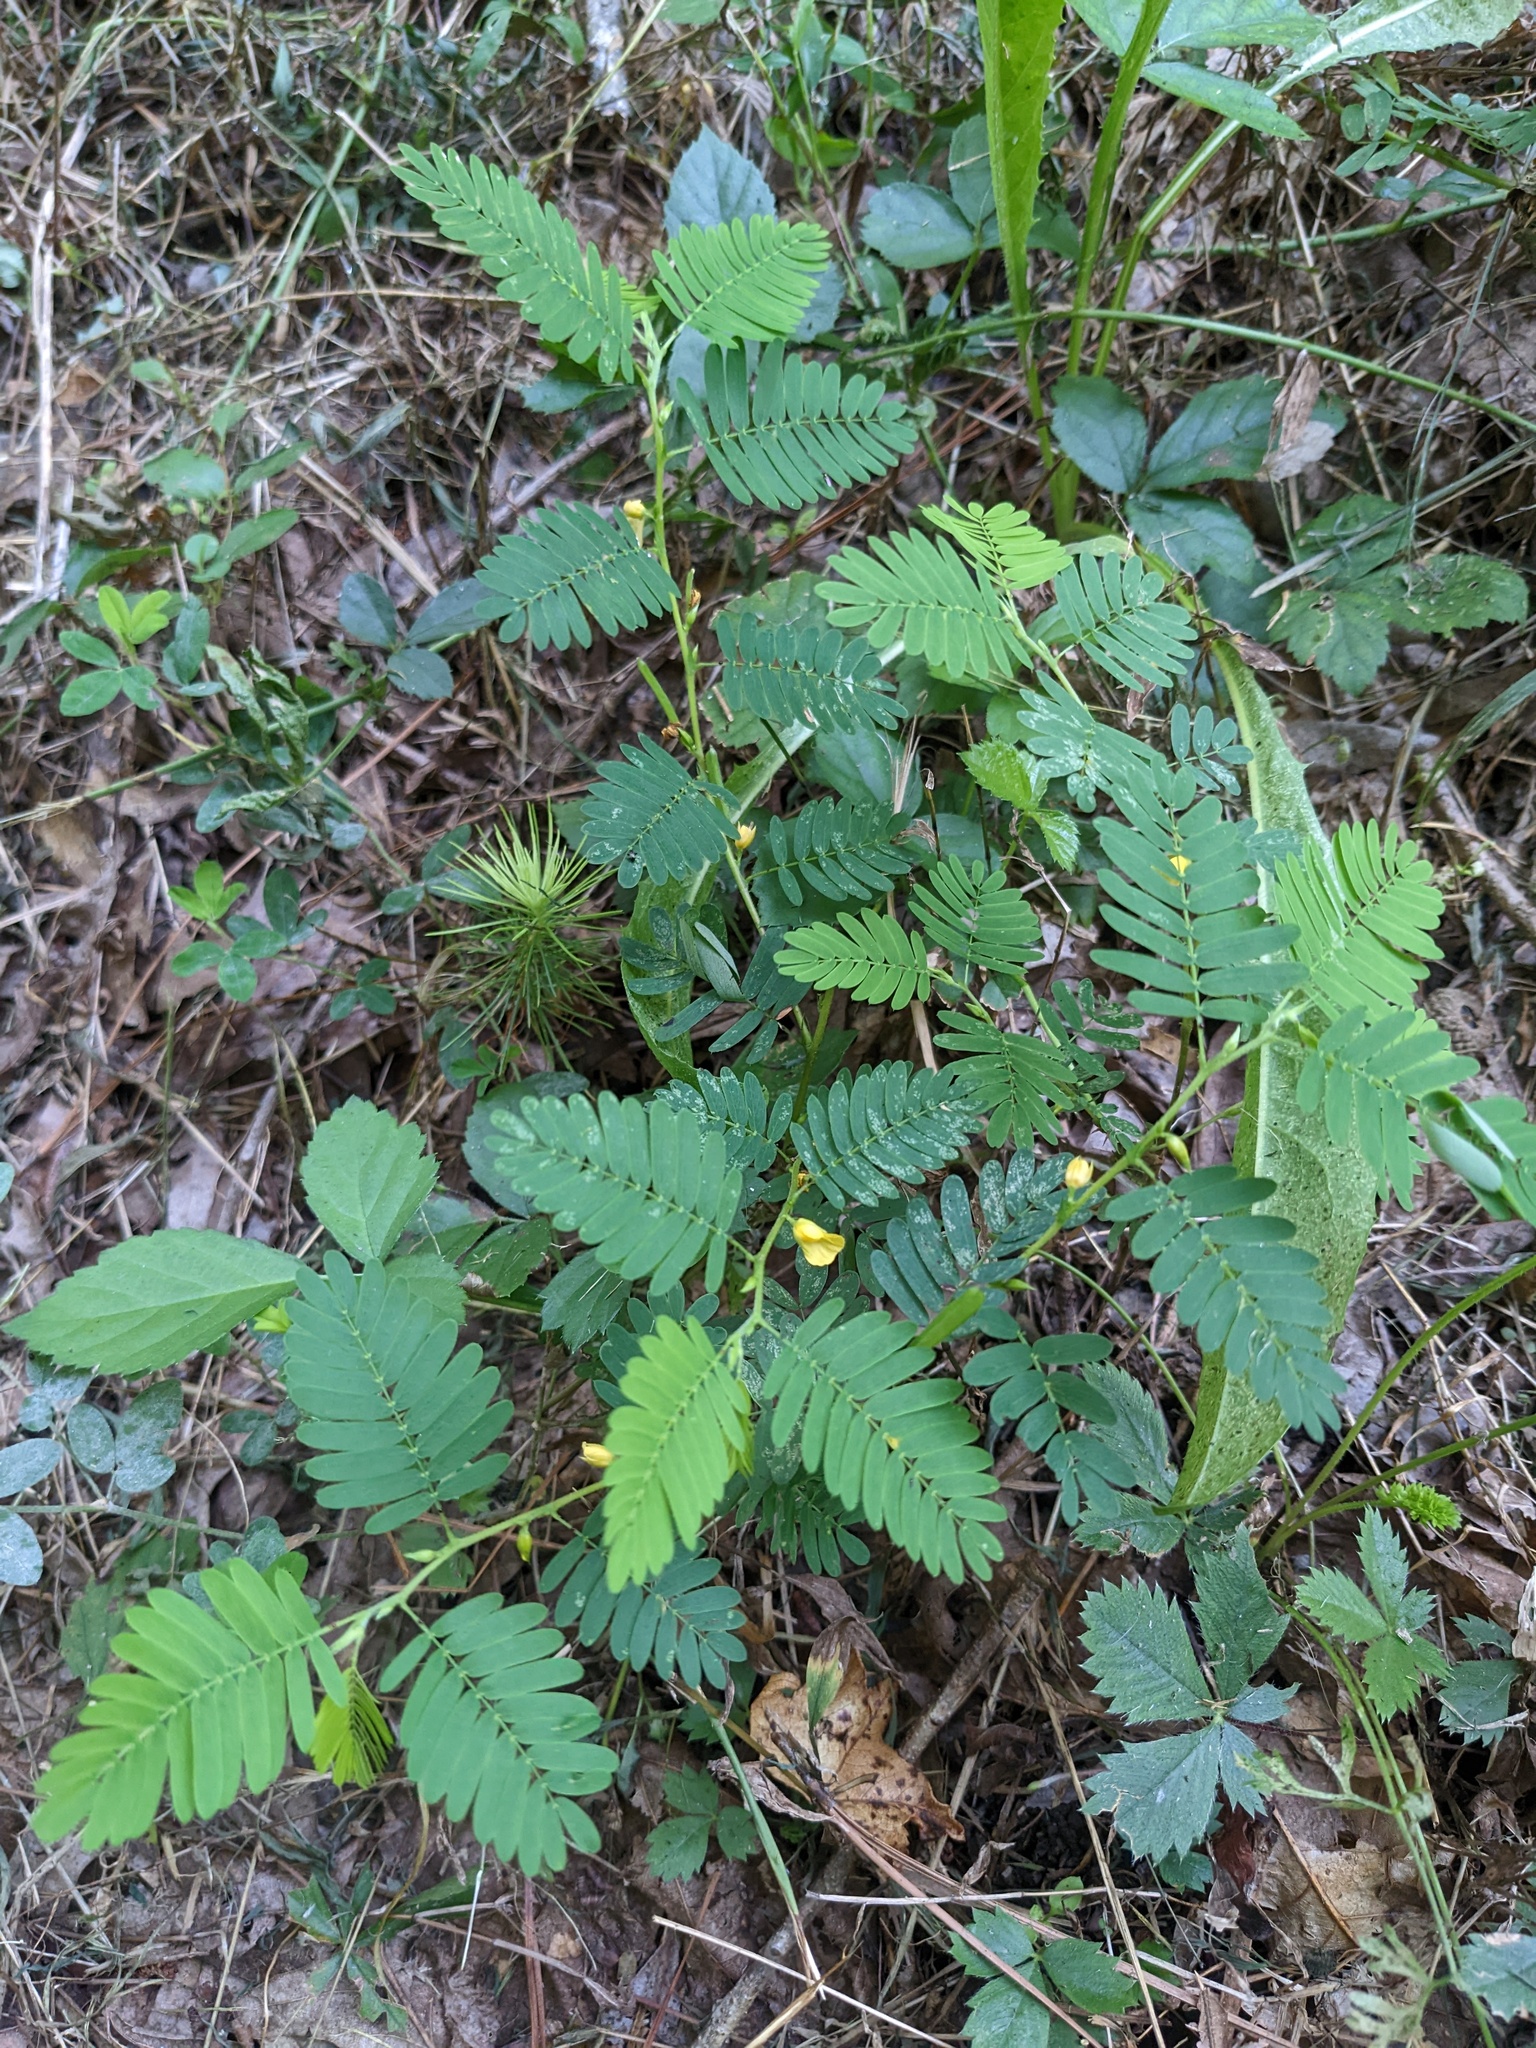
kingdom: Plantae
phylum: Tracheophyta
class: Magnoliopsida
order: Fabales
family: Fabaceae
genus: Chamaecrista
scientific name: Chamaecrista nictitans
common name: Sensitive cassia
